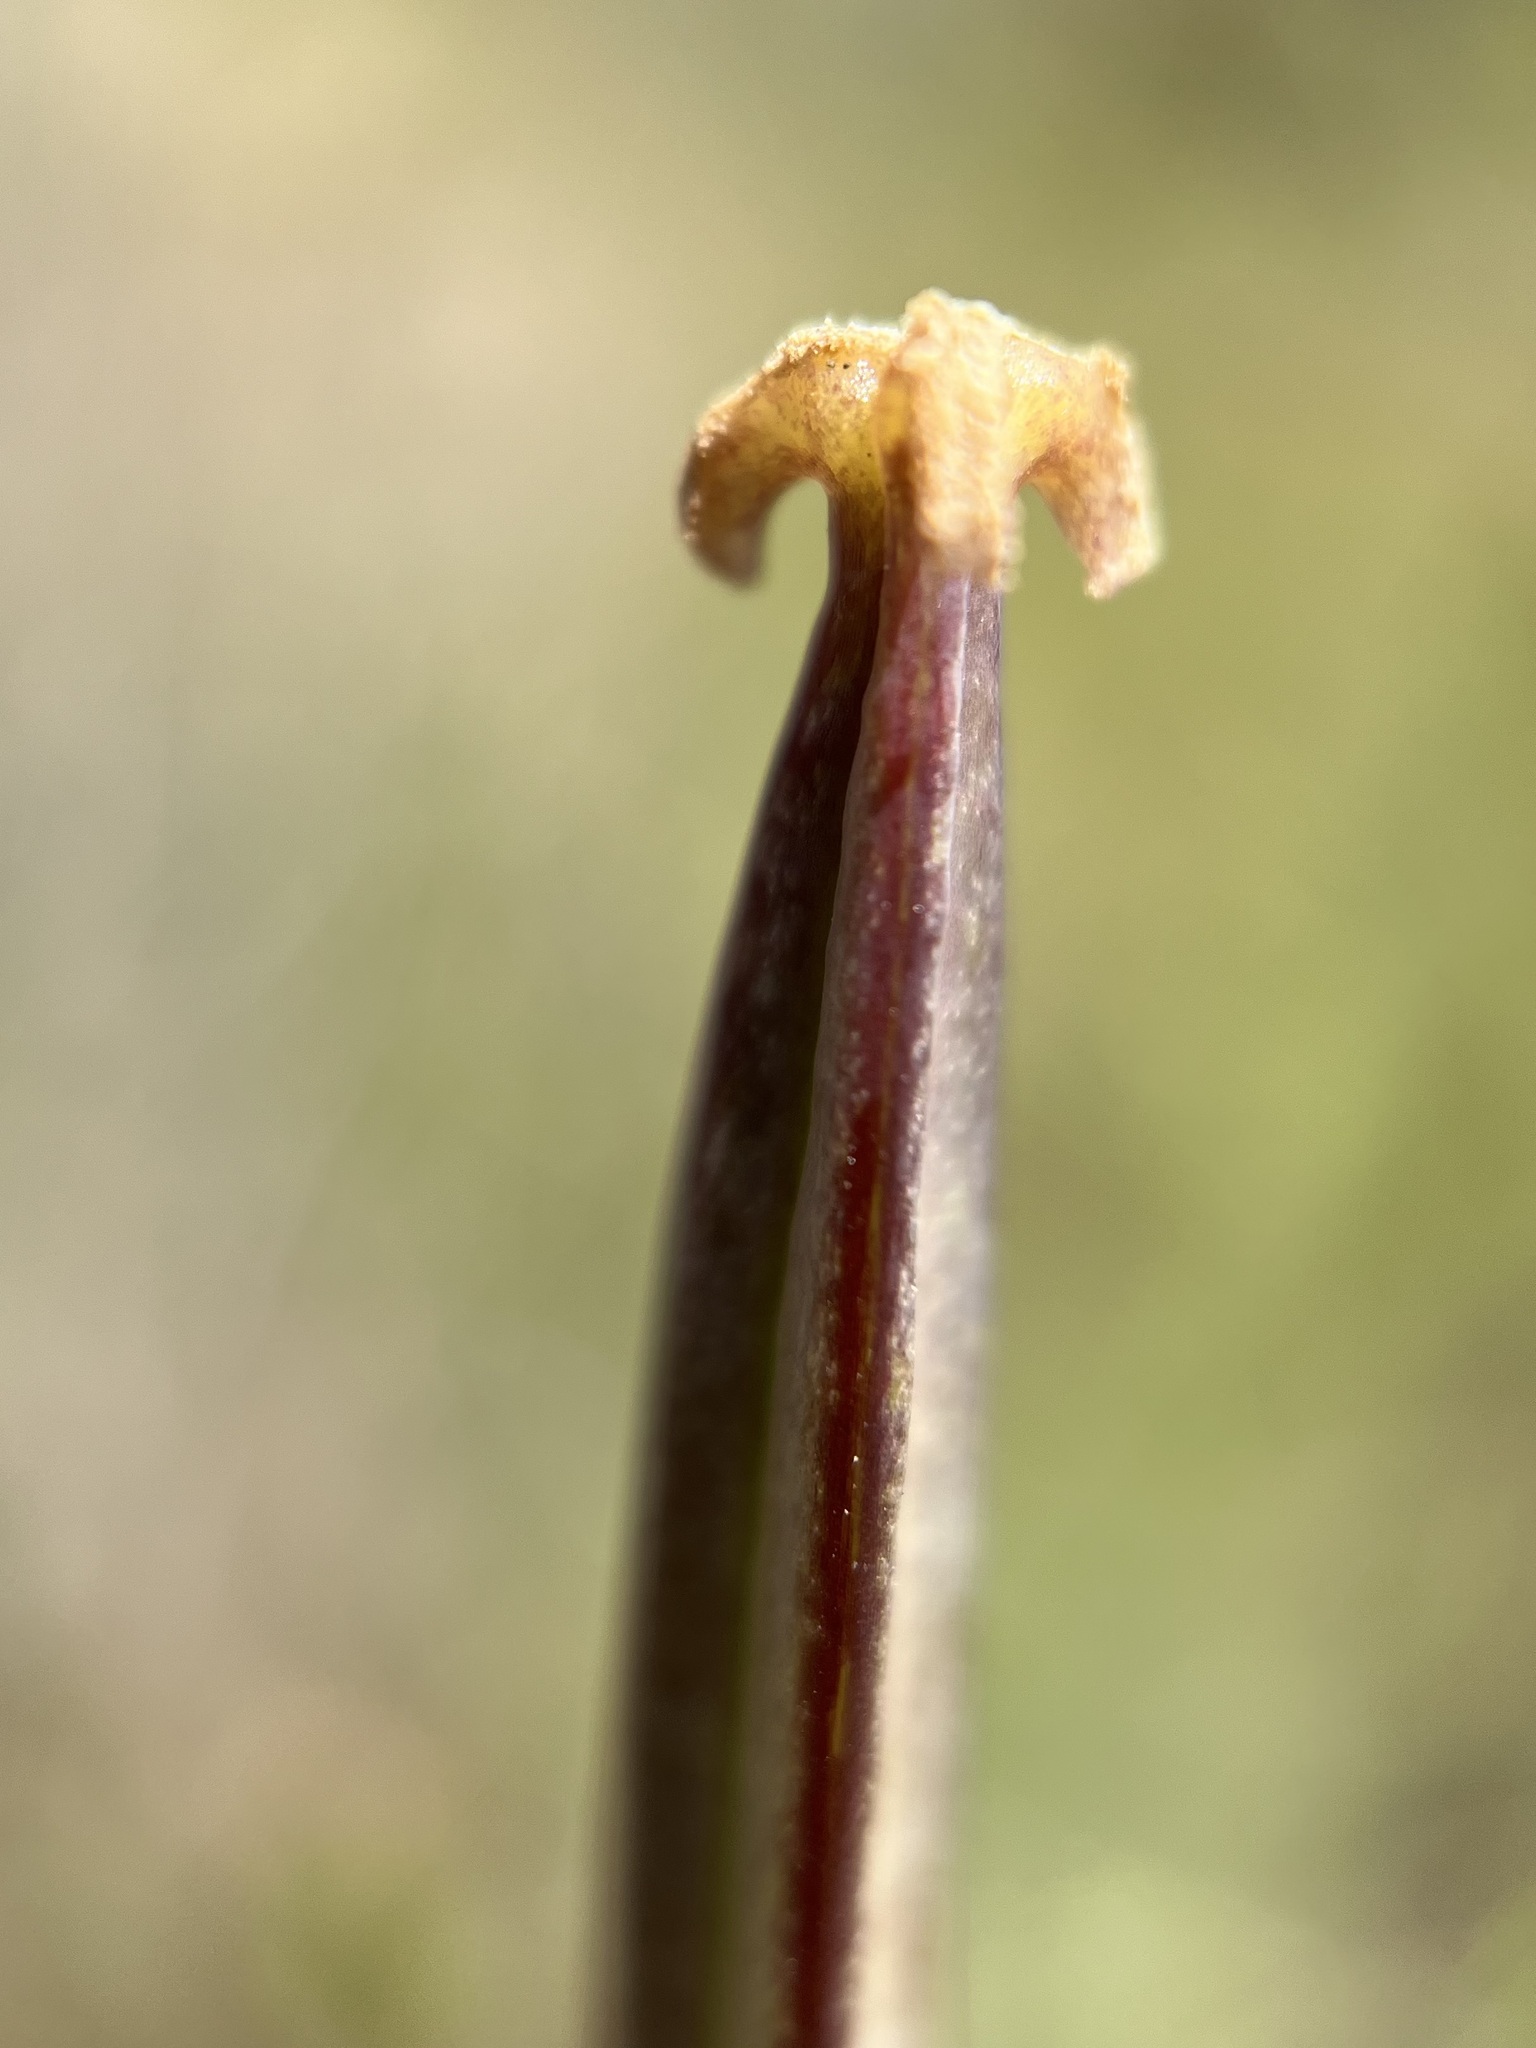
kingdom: Plantae
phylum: Tracheophyta
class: Liliopsida
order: Liliales
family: Liliaceae
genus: Calochortus
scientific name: Calochortus splendens
